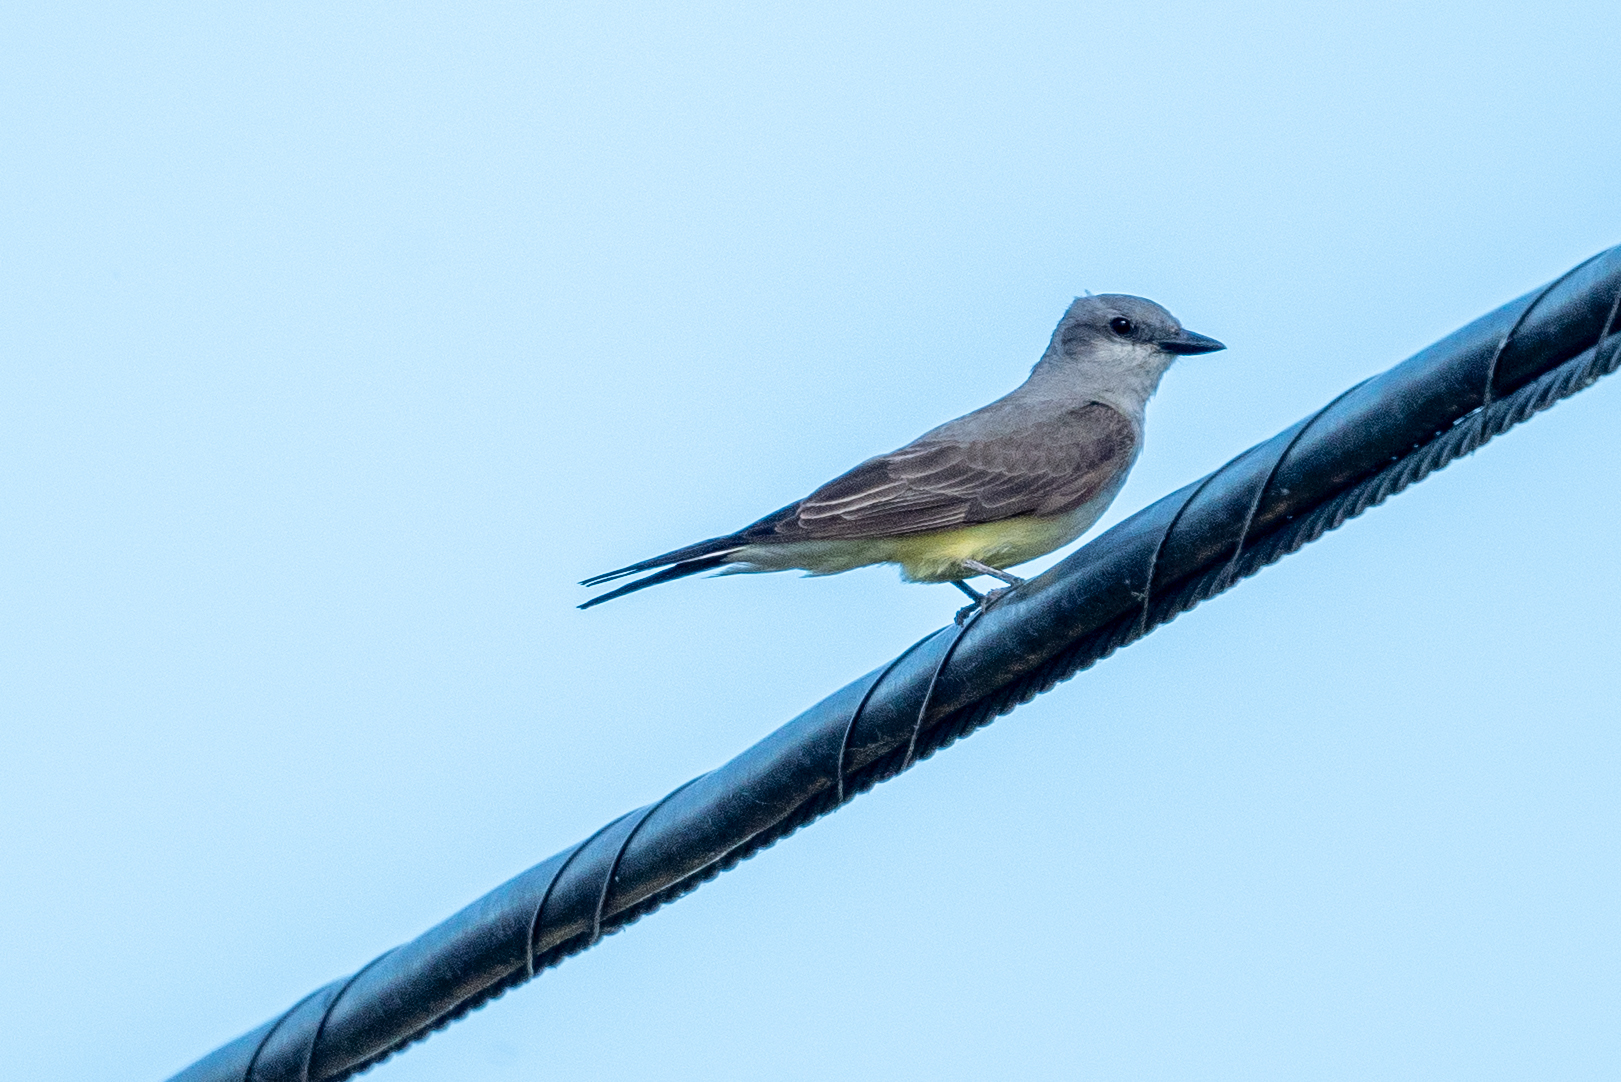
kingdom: Animalia
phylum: Chordata
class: Aves
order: Passeriformes
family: Tyrannidae
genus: Tyrannus
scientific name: Tyrannus verticalis
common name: Western kingbird
